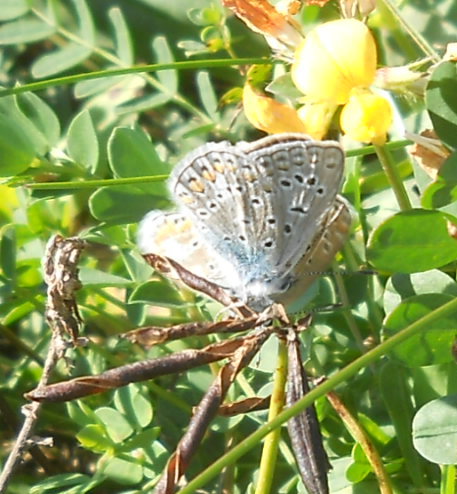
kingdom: Animalia
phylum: Arthropoda
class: Insecta
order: Lepidoptera
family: Lycaenidae
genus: Polyommatus
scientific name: Polyommatus icarus
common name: Common blue
